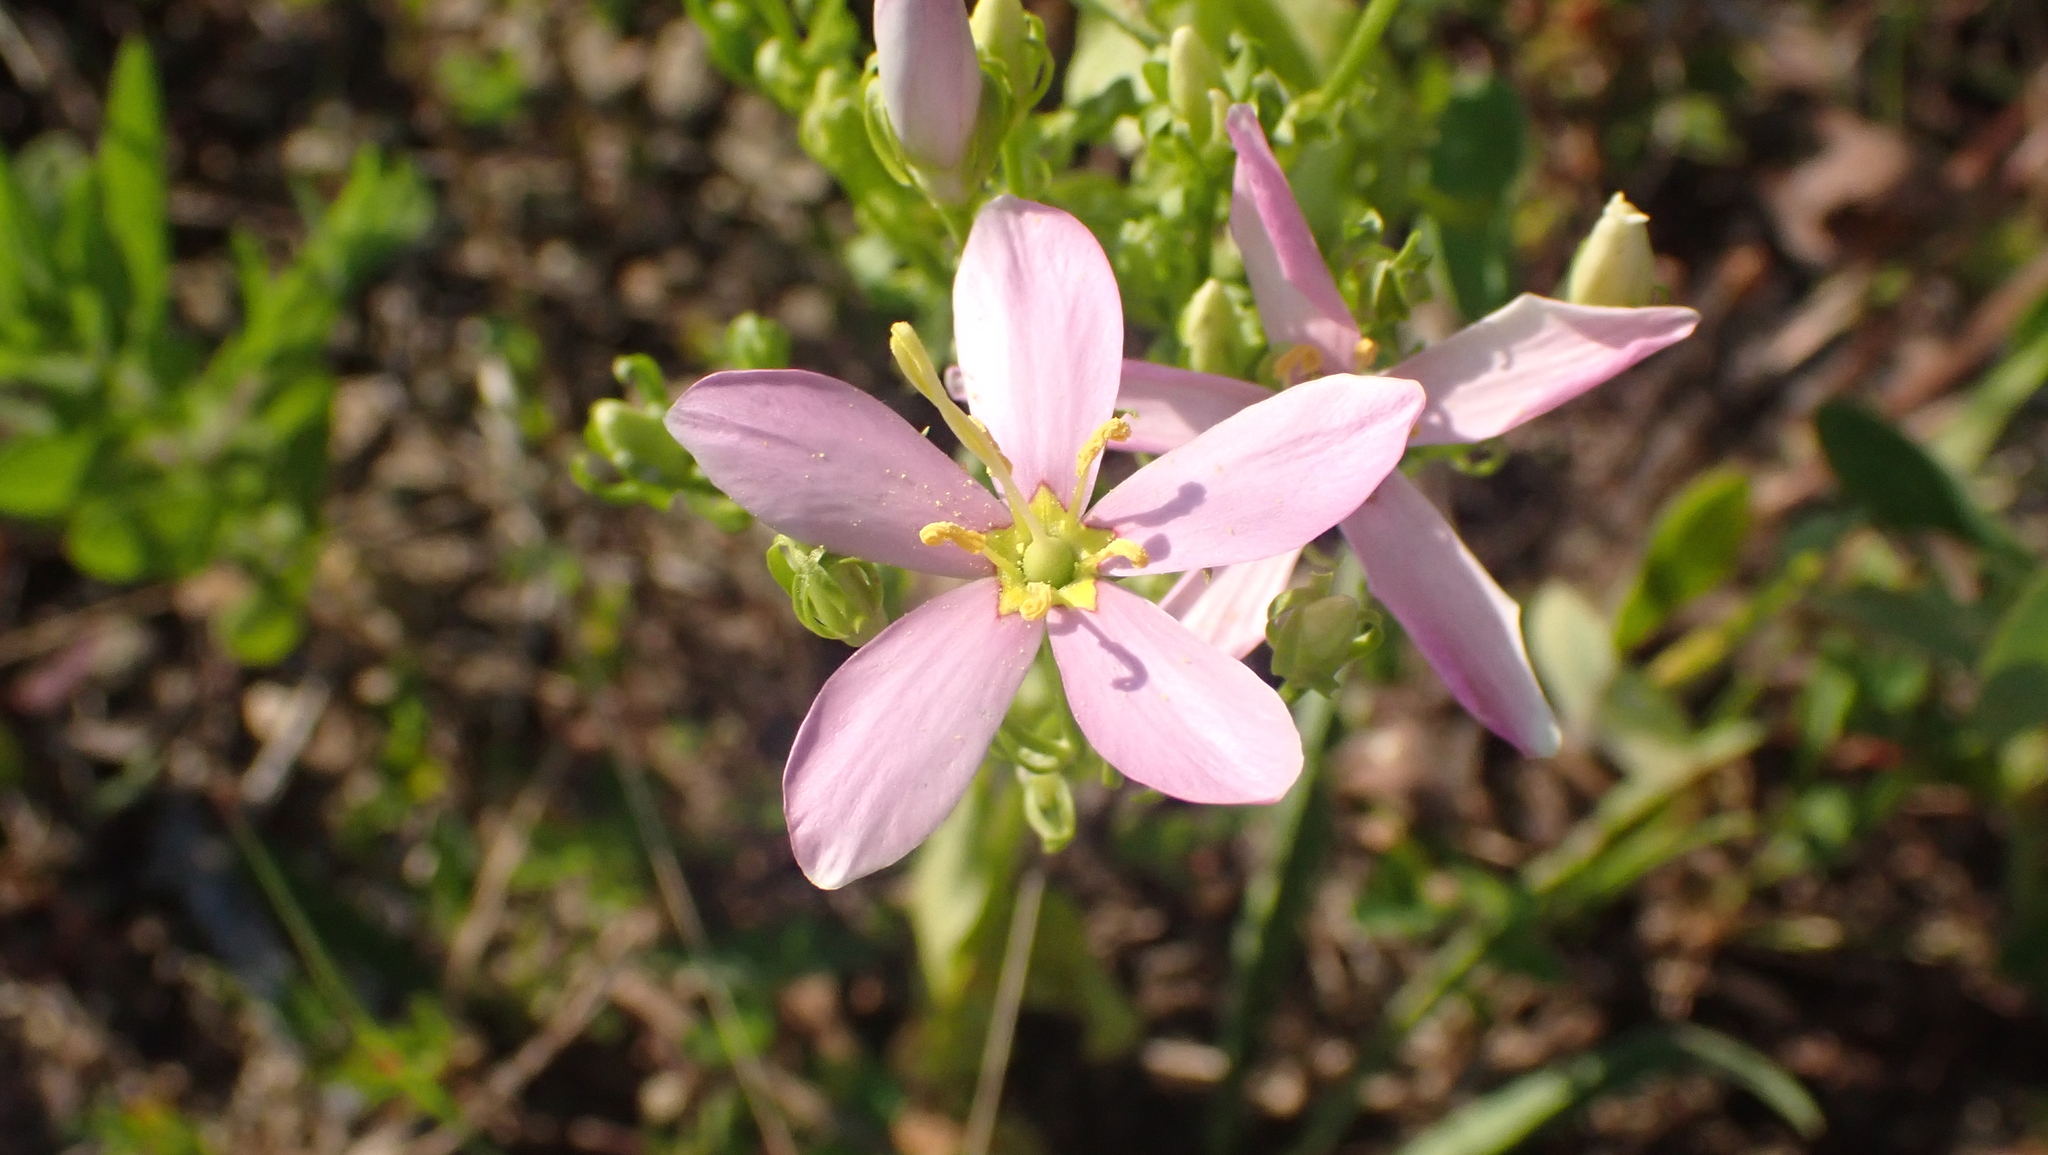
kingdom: Plantae
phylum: Tracheophyta
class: Magnoliopsida
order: Gentianales
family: Gentianaceae
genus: Sabatia
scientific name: Sabatia angularis
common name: Rose-pink
